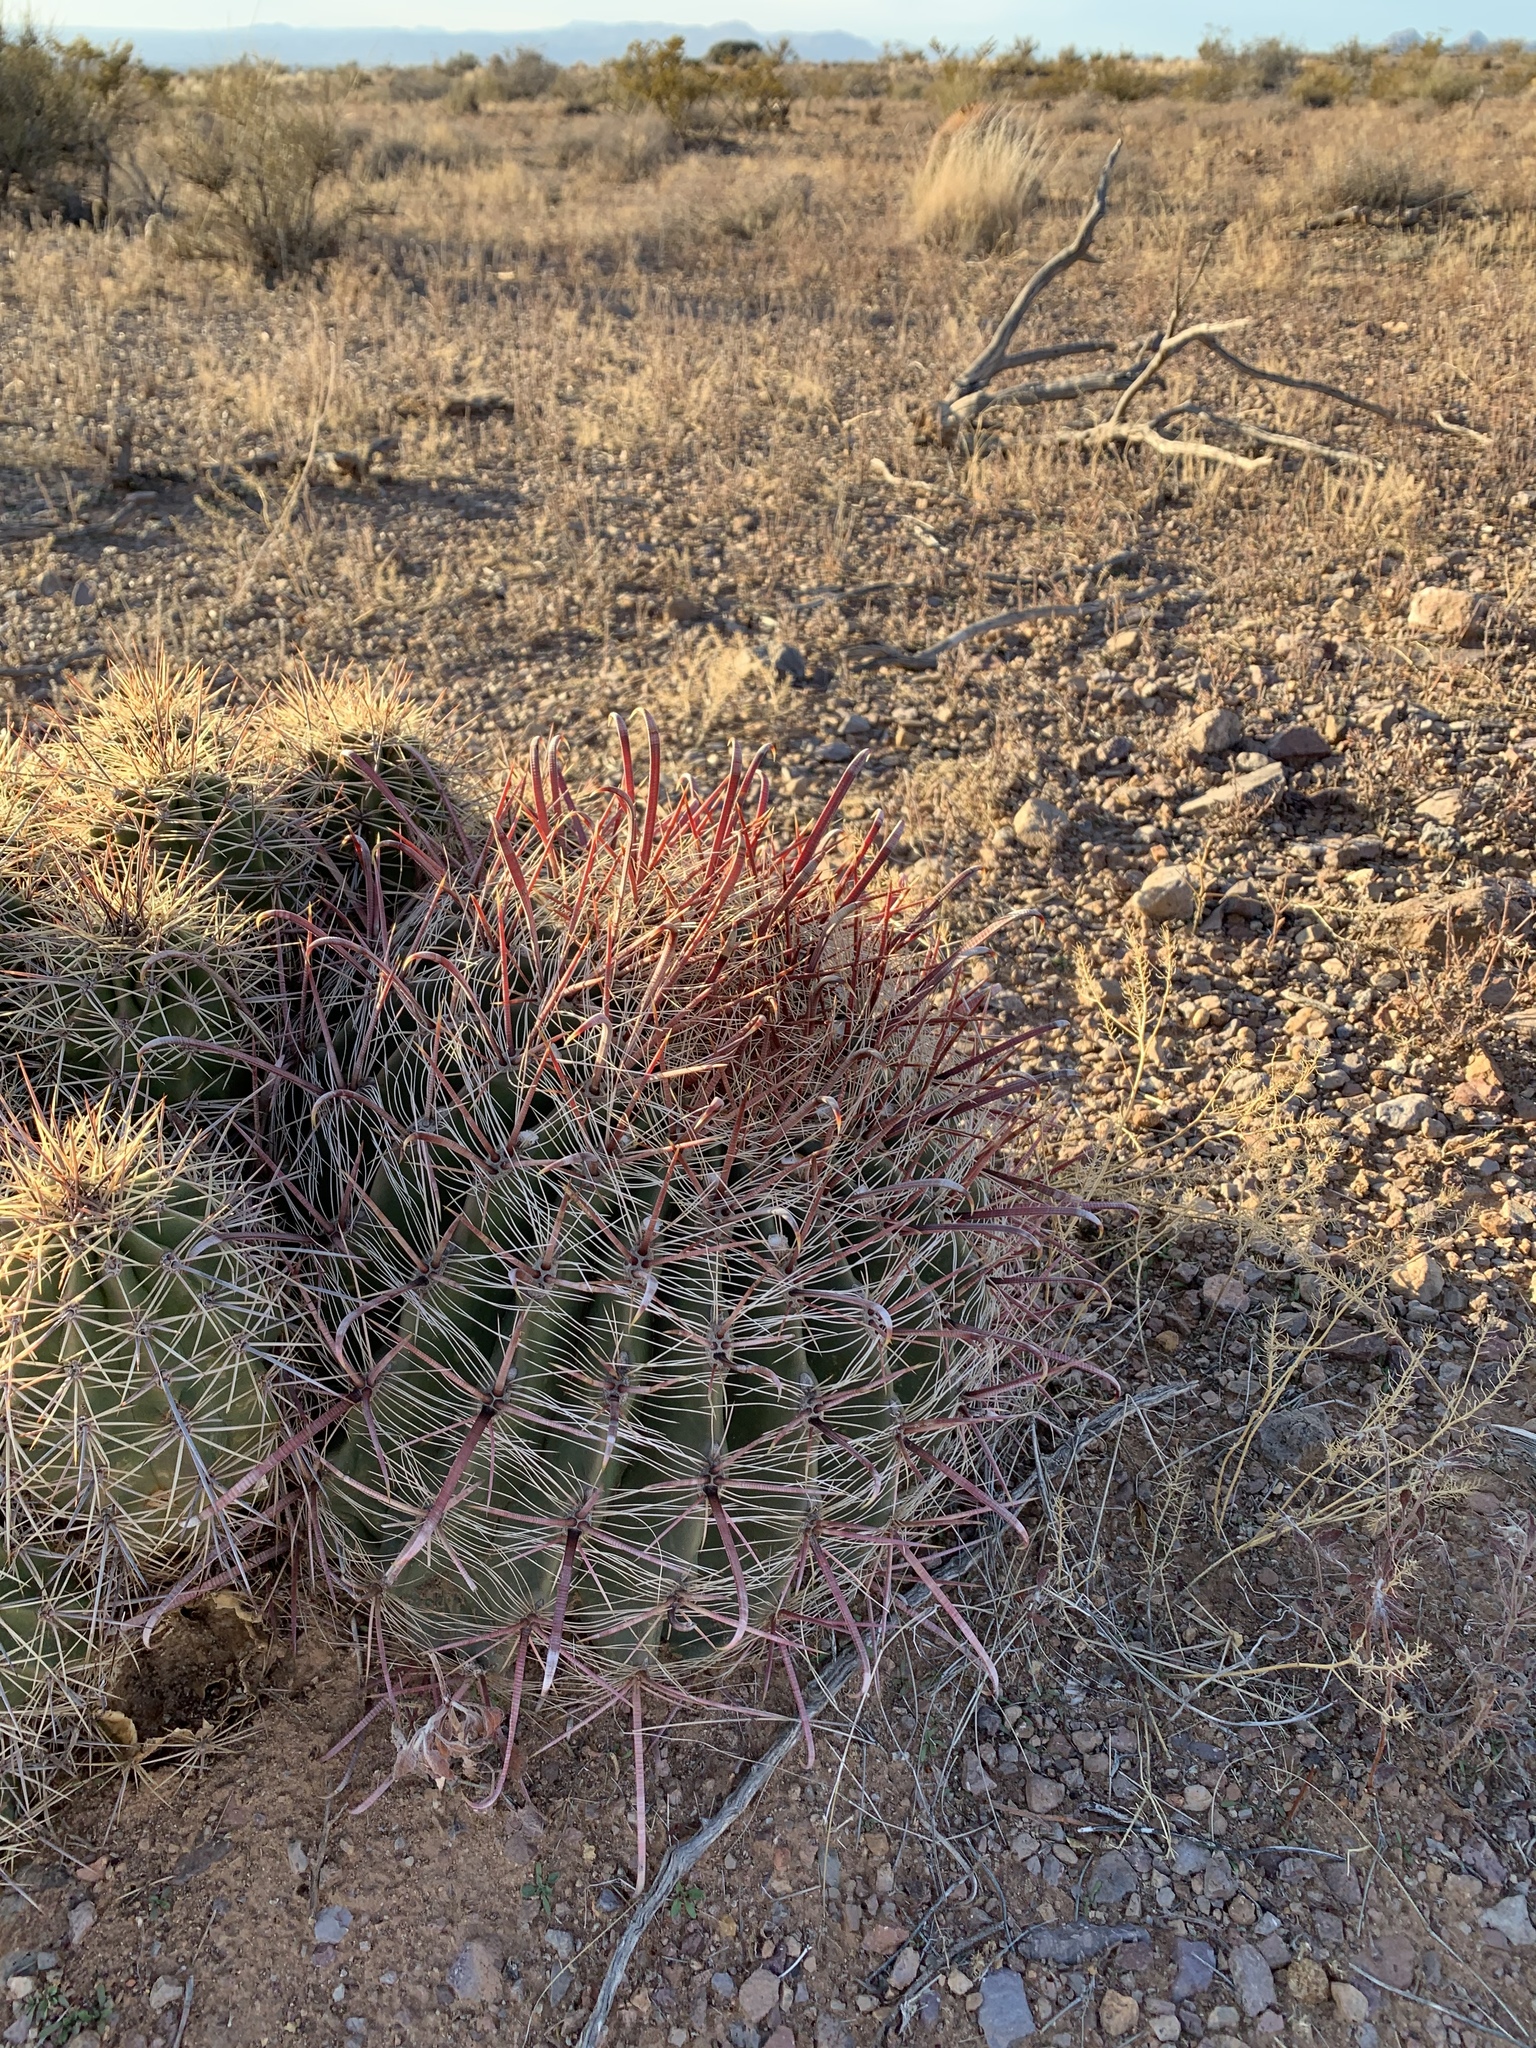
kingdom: Plantae
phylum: Tracheophyta
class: Magnoliopsida
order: Caryophyllales
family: Cactaceae
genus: Ferocactus
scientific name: Ferocactus wislizeni
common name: Candy barrel cactus
